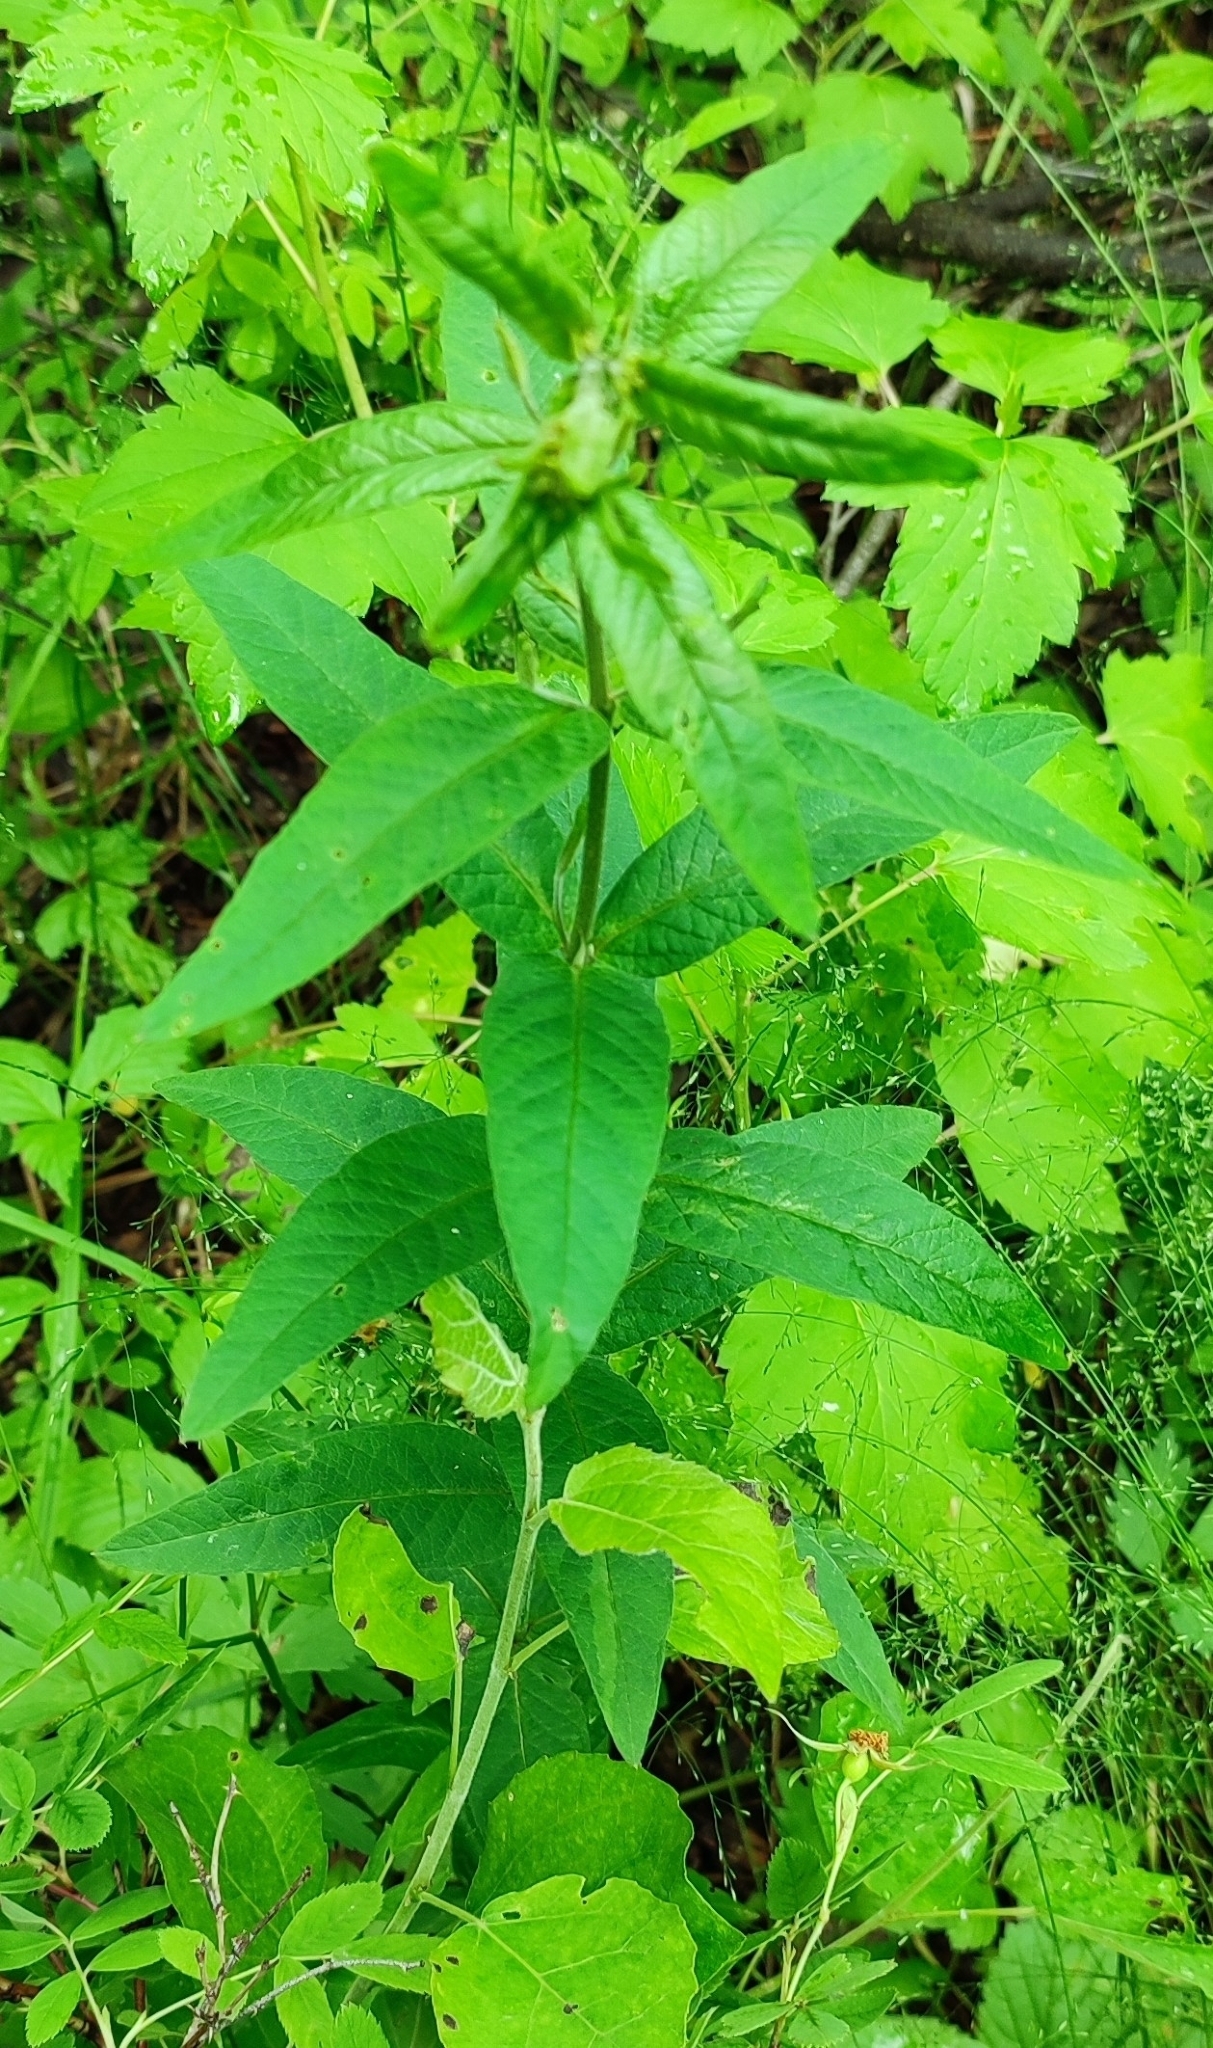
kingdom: Plantae
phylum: Tracheophyta
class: Magnoliopsida
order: Ericales
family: Primulaceae
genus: Lysimachia
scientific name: Lysimachia vulgaris
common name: Yellow loosestrife
